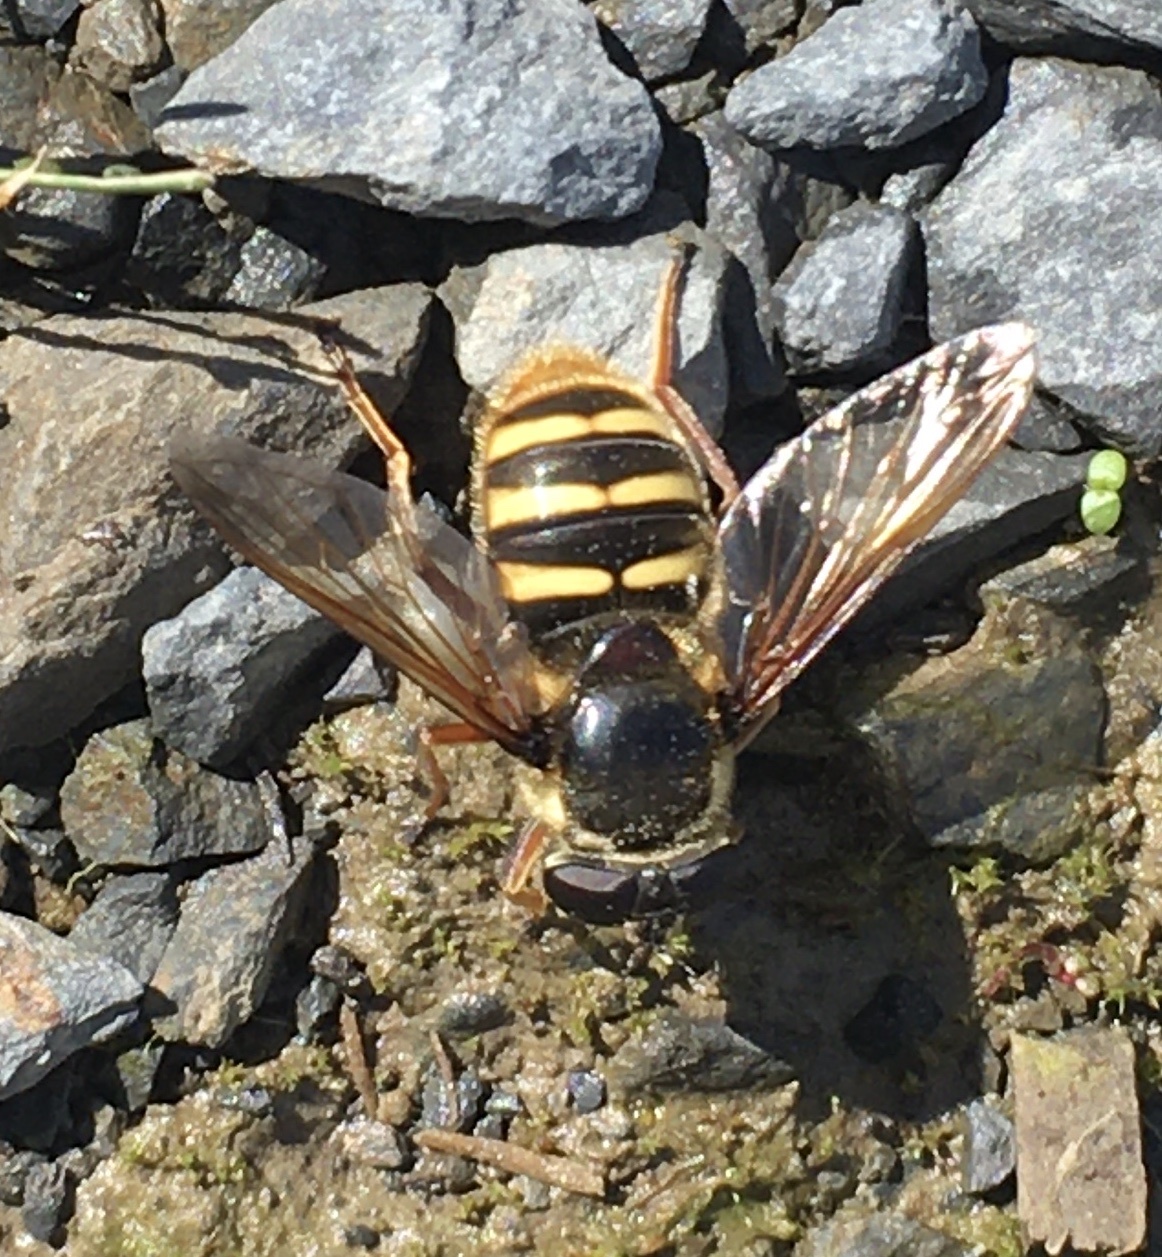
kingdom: Animalia
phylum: Arthropoda
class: Insecta
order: Diptera
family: Syrphidae
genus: Sericomyia
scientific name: Sericomyia silentis
